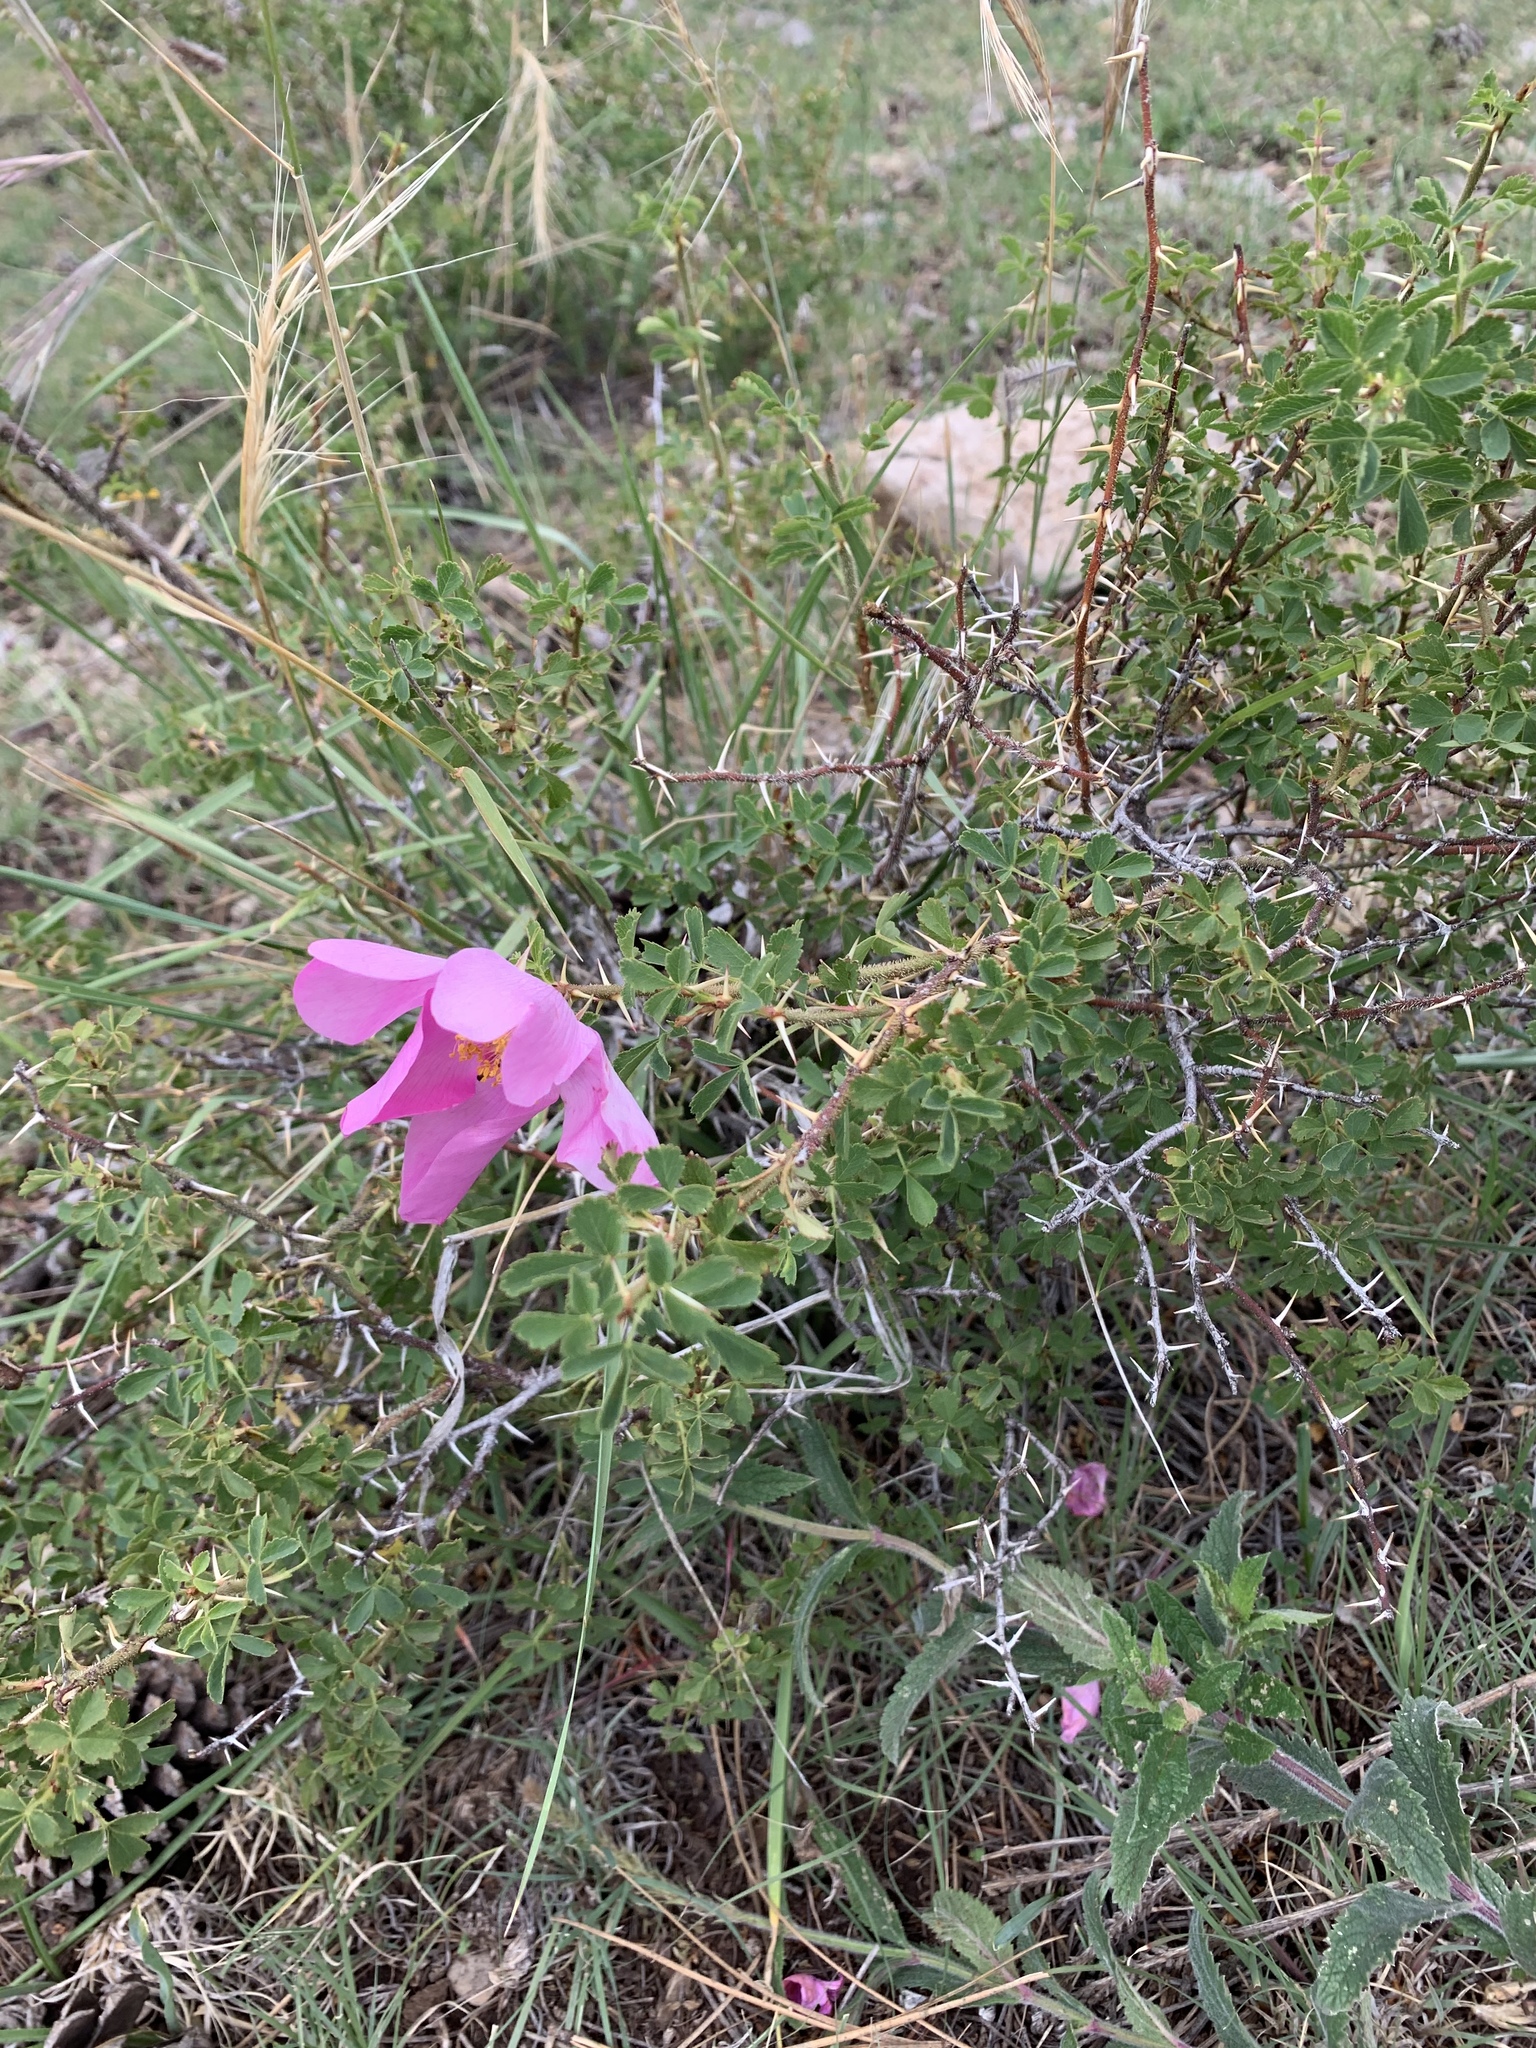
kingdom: Plantae
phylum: Tracheophyta
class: Magnoliopsida
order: Rosales
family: Rosaceae
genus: Rosa
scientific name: Rosa stellata
